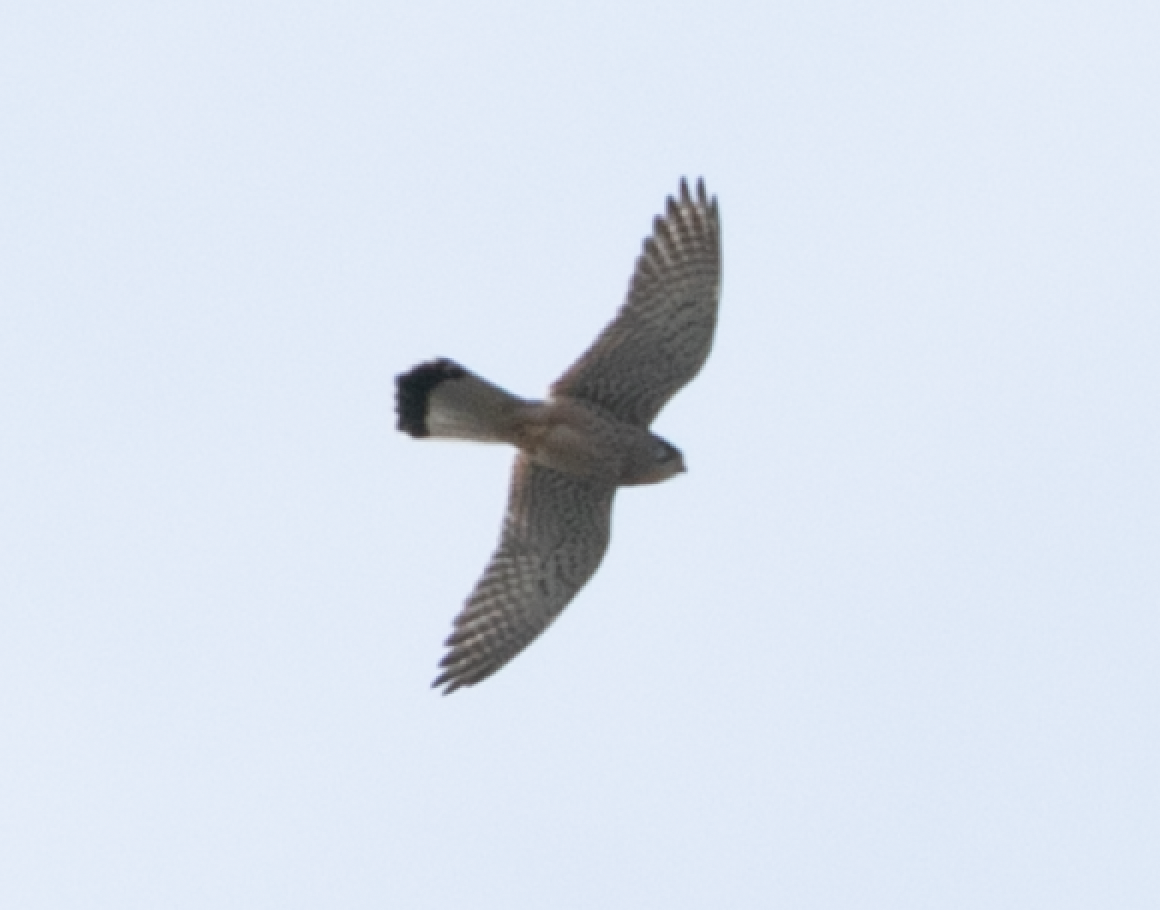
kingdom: Animalia
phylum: Chordata
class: Aves
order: Falconiformes
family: Falconidae
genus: Falco
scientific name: Falco tinnunculus
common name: Common kestrel
